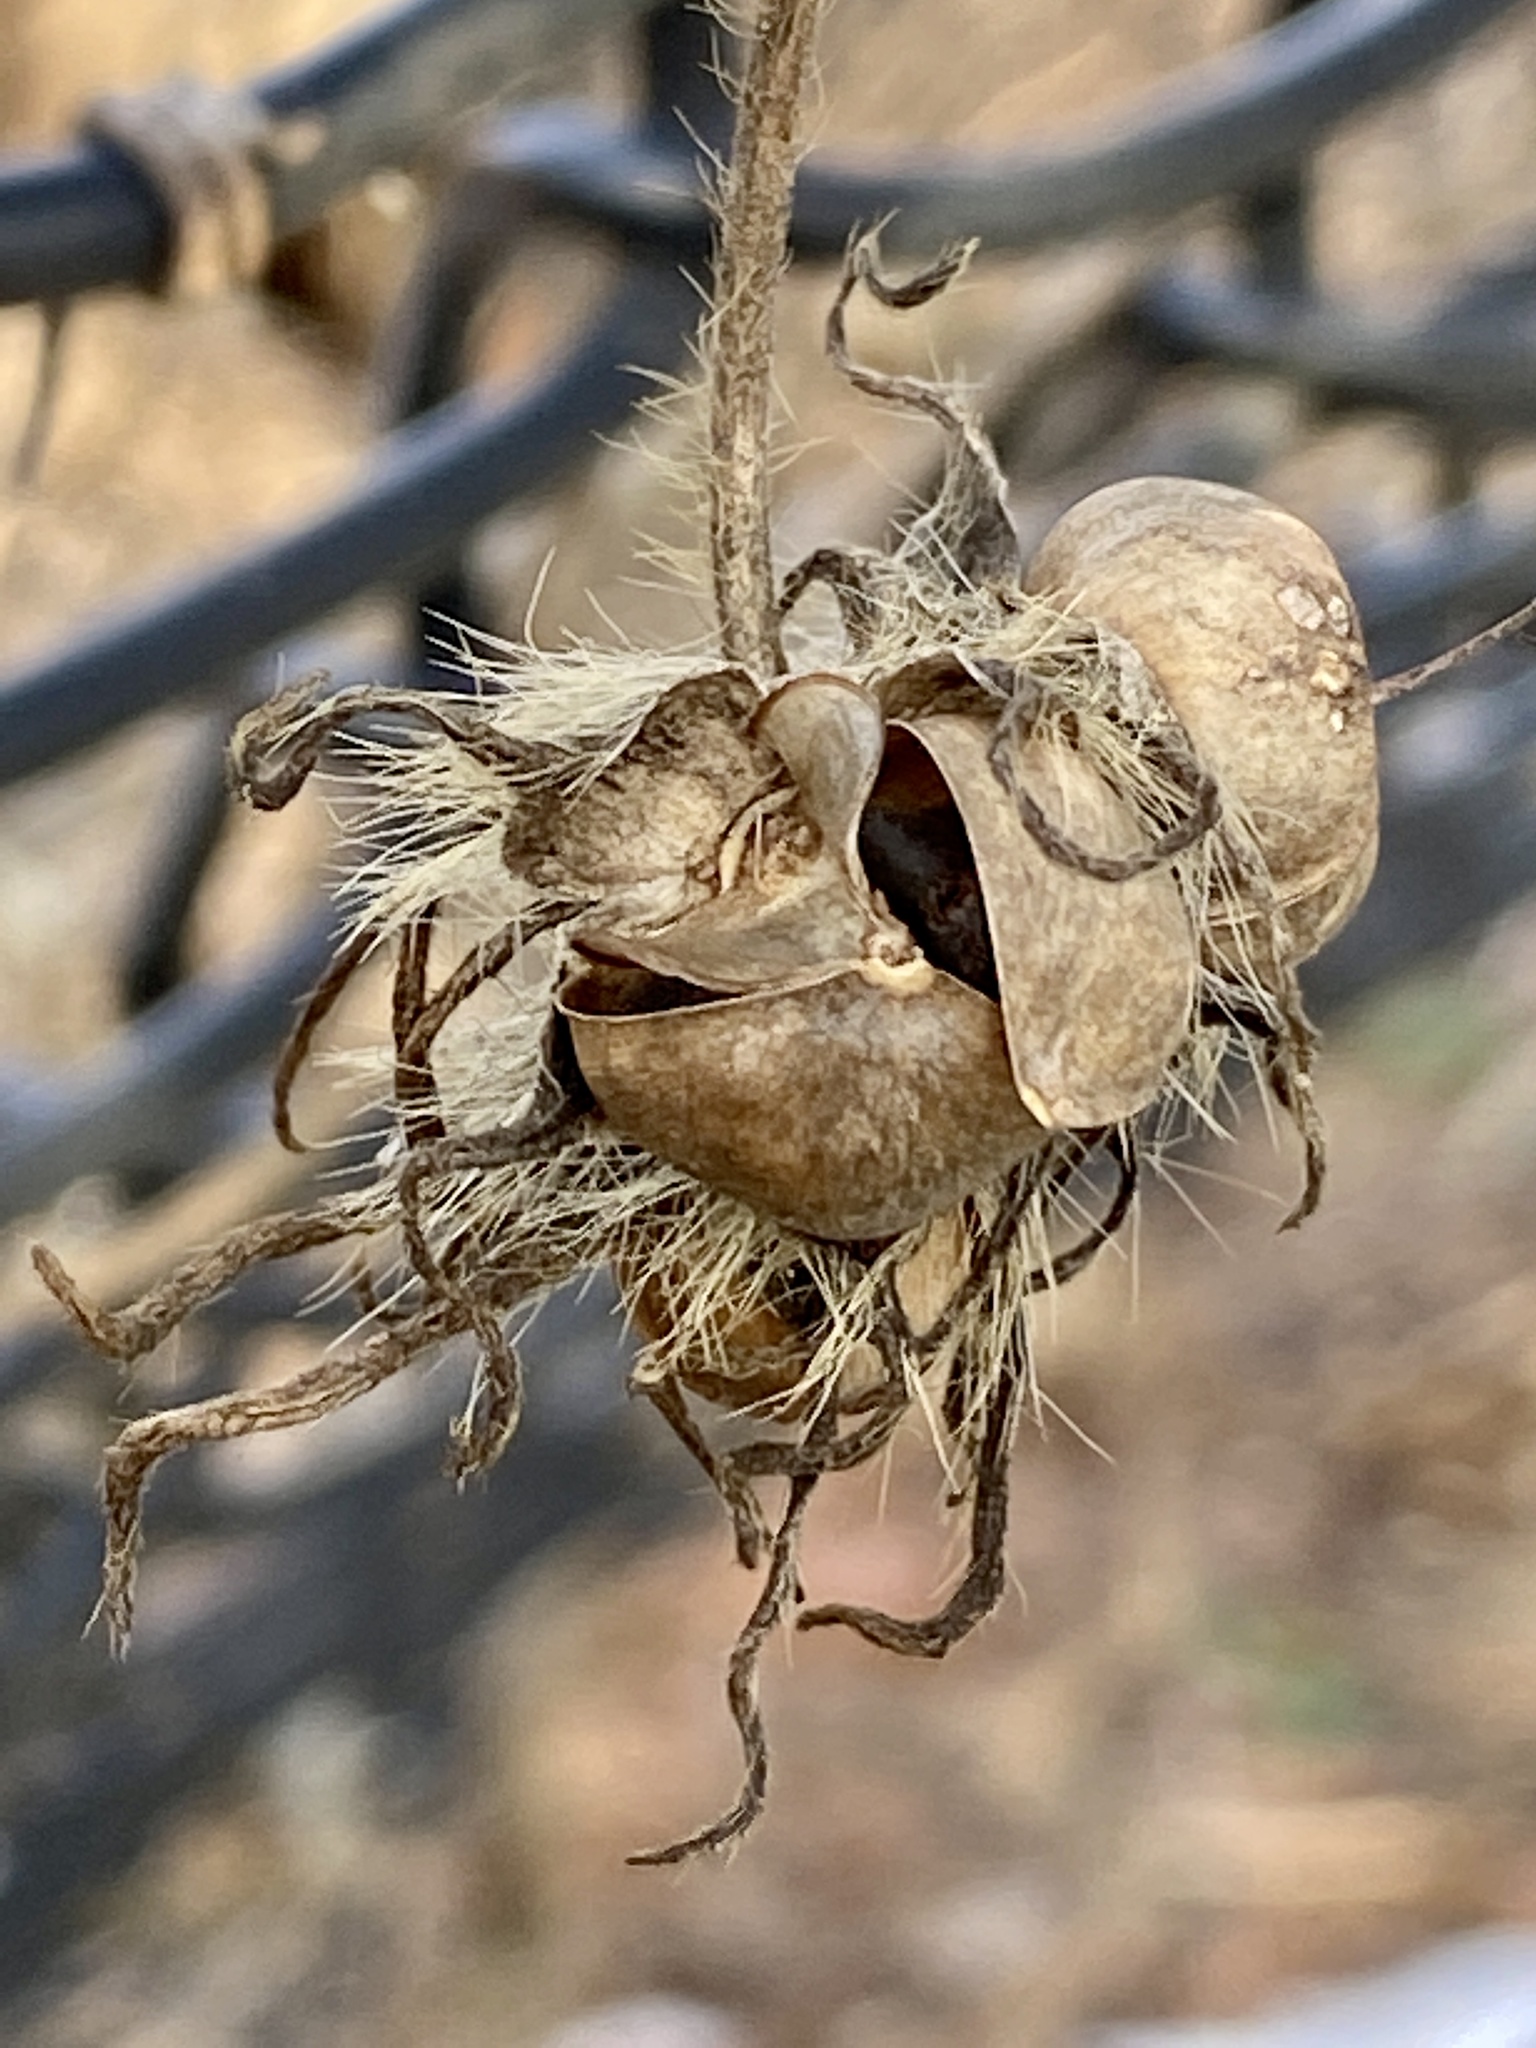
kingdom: Plantae
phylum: Tracheophyta
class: Magnoliopsida
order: Solanales
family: Convolvulaceae
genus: Ipomoea
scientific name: Ipomoea hederacea
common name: Ivy-leaved morning-glory
